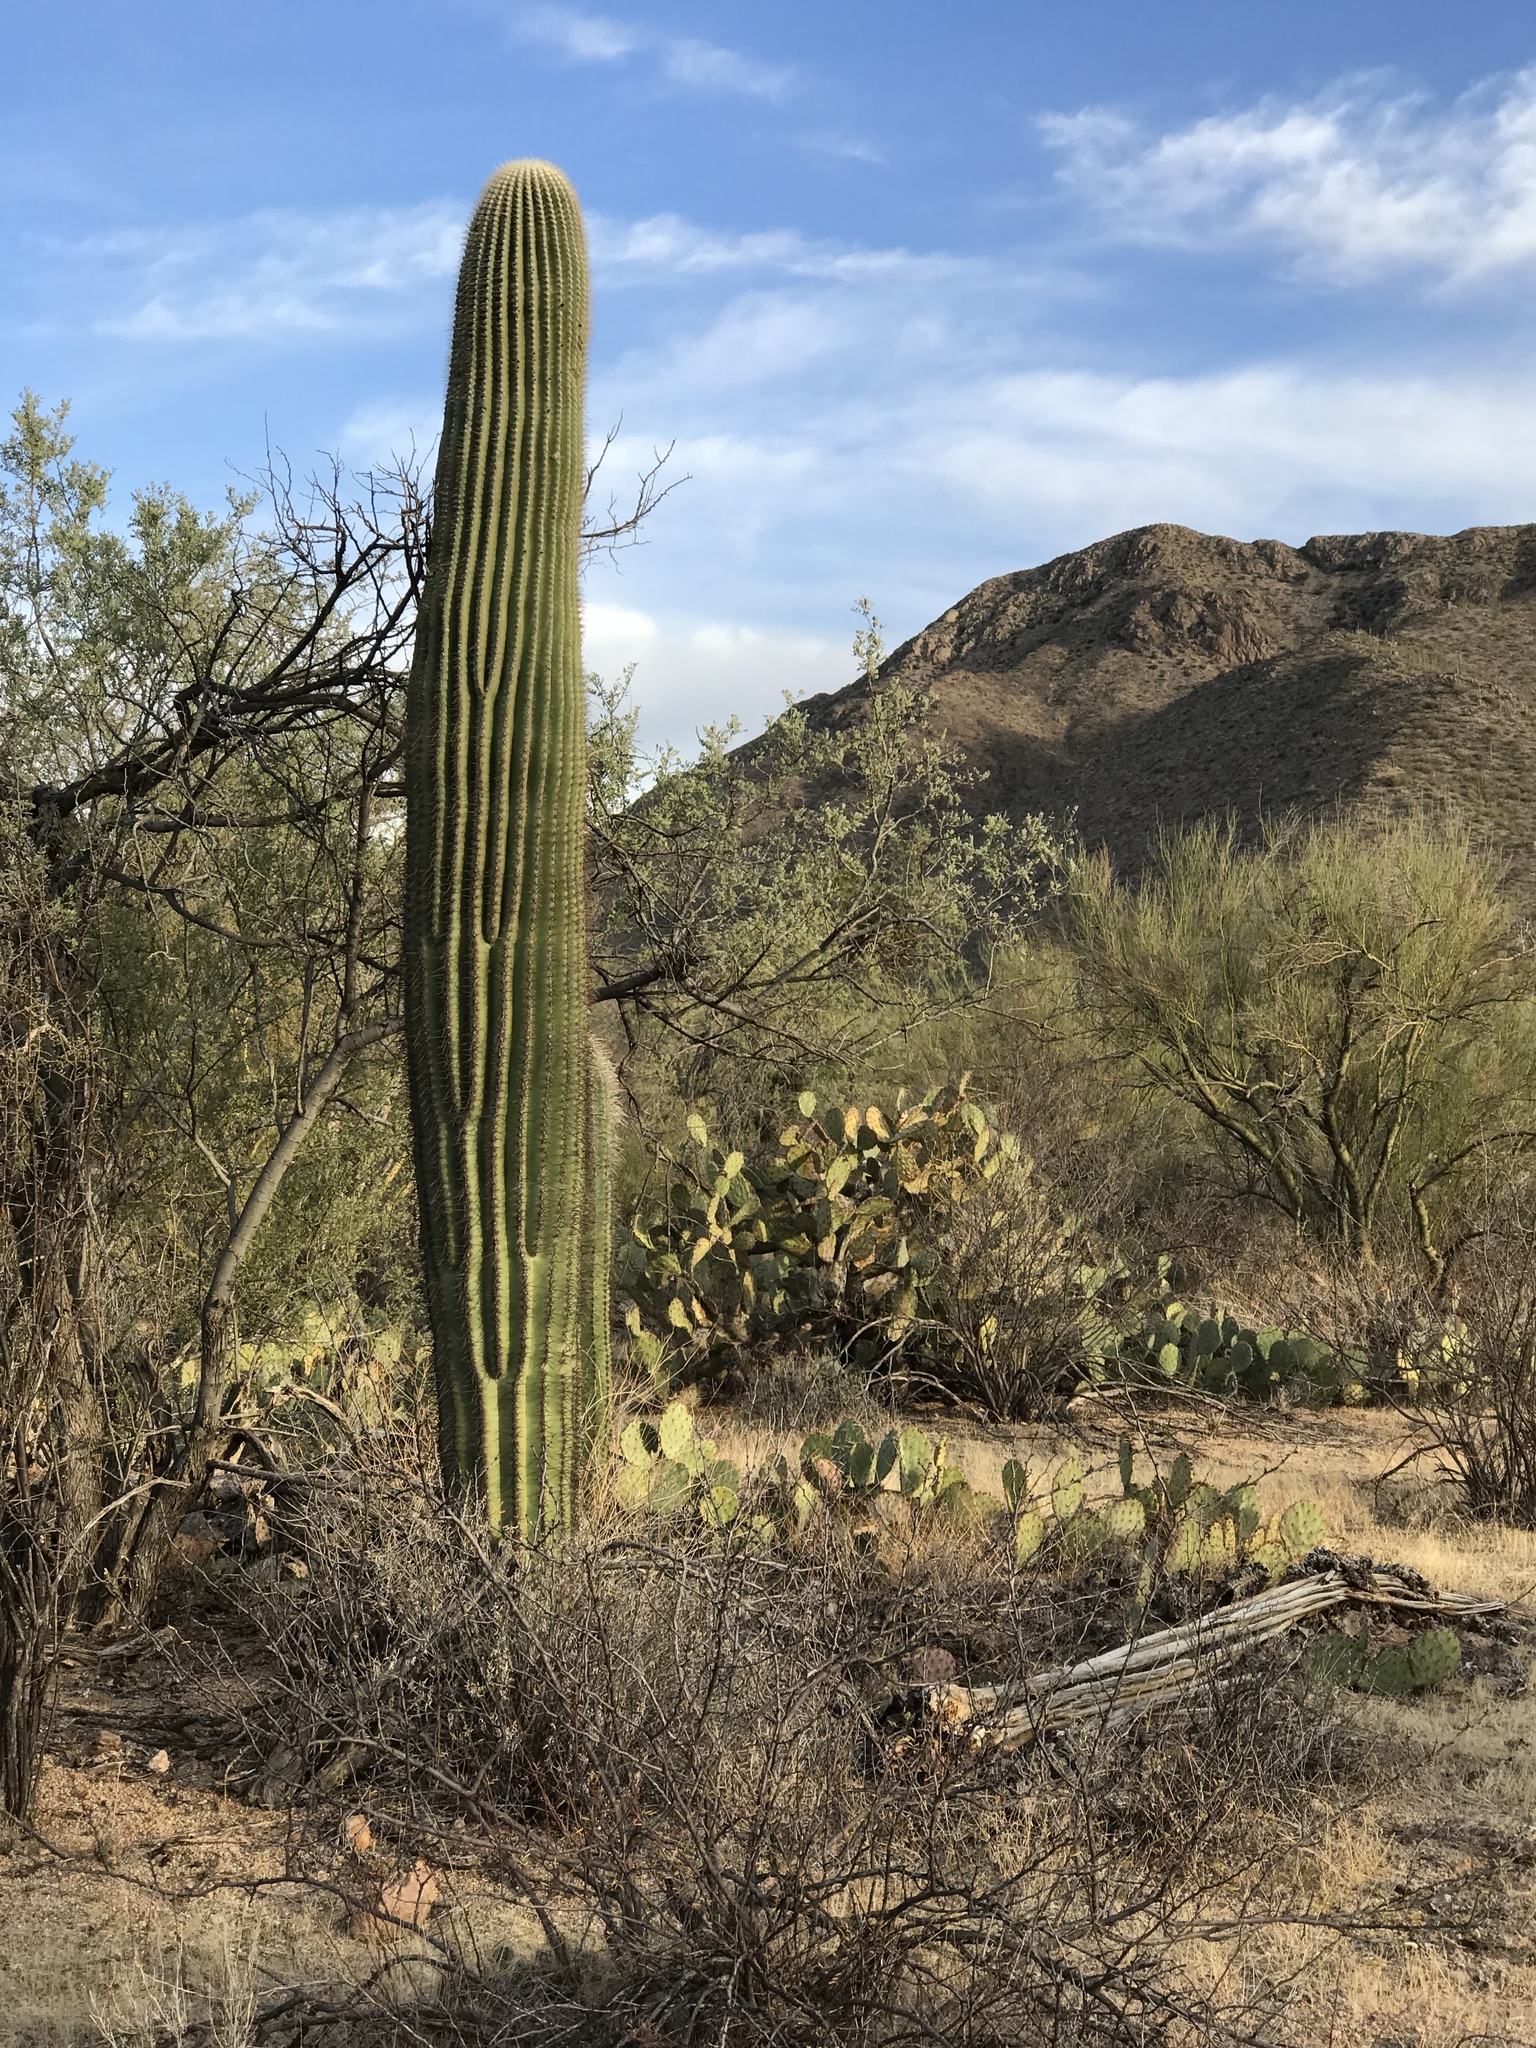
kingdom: Plantae
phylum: Tracheophyta
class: Magnoliopsida
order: Caryophyllales
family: Cactaceae
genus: Carnegiea
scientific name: Carnegiea gigantea
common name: Saguaro
